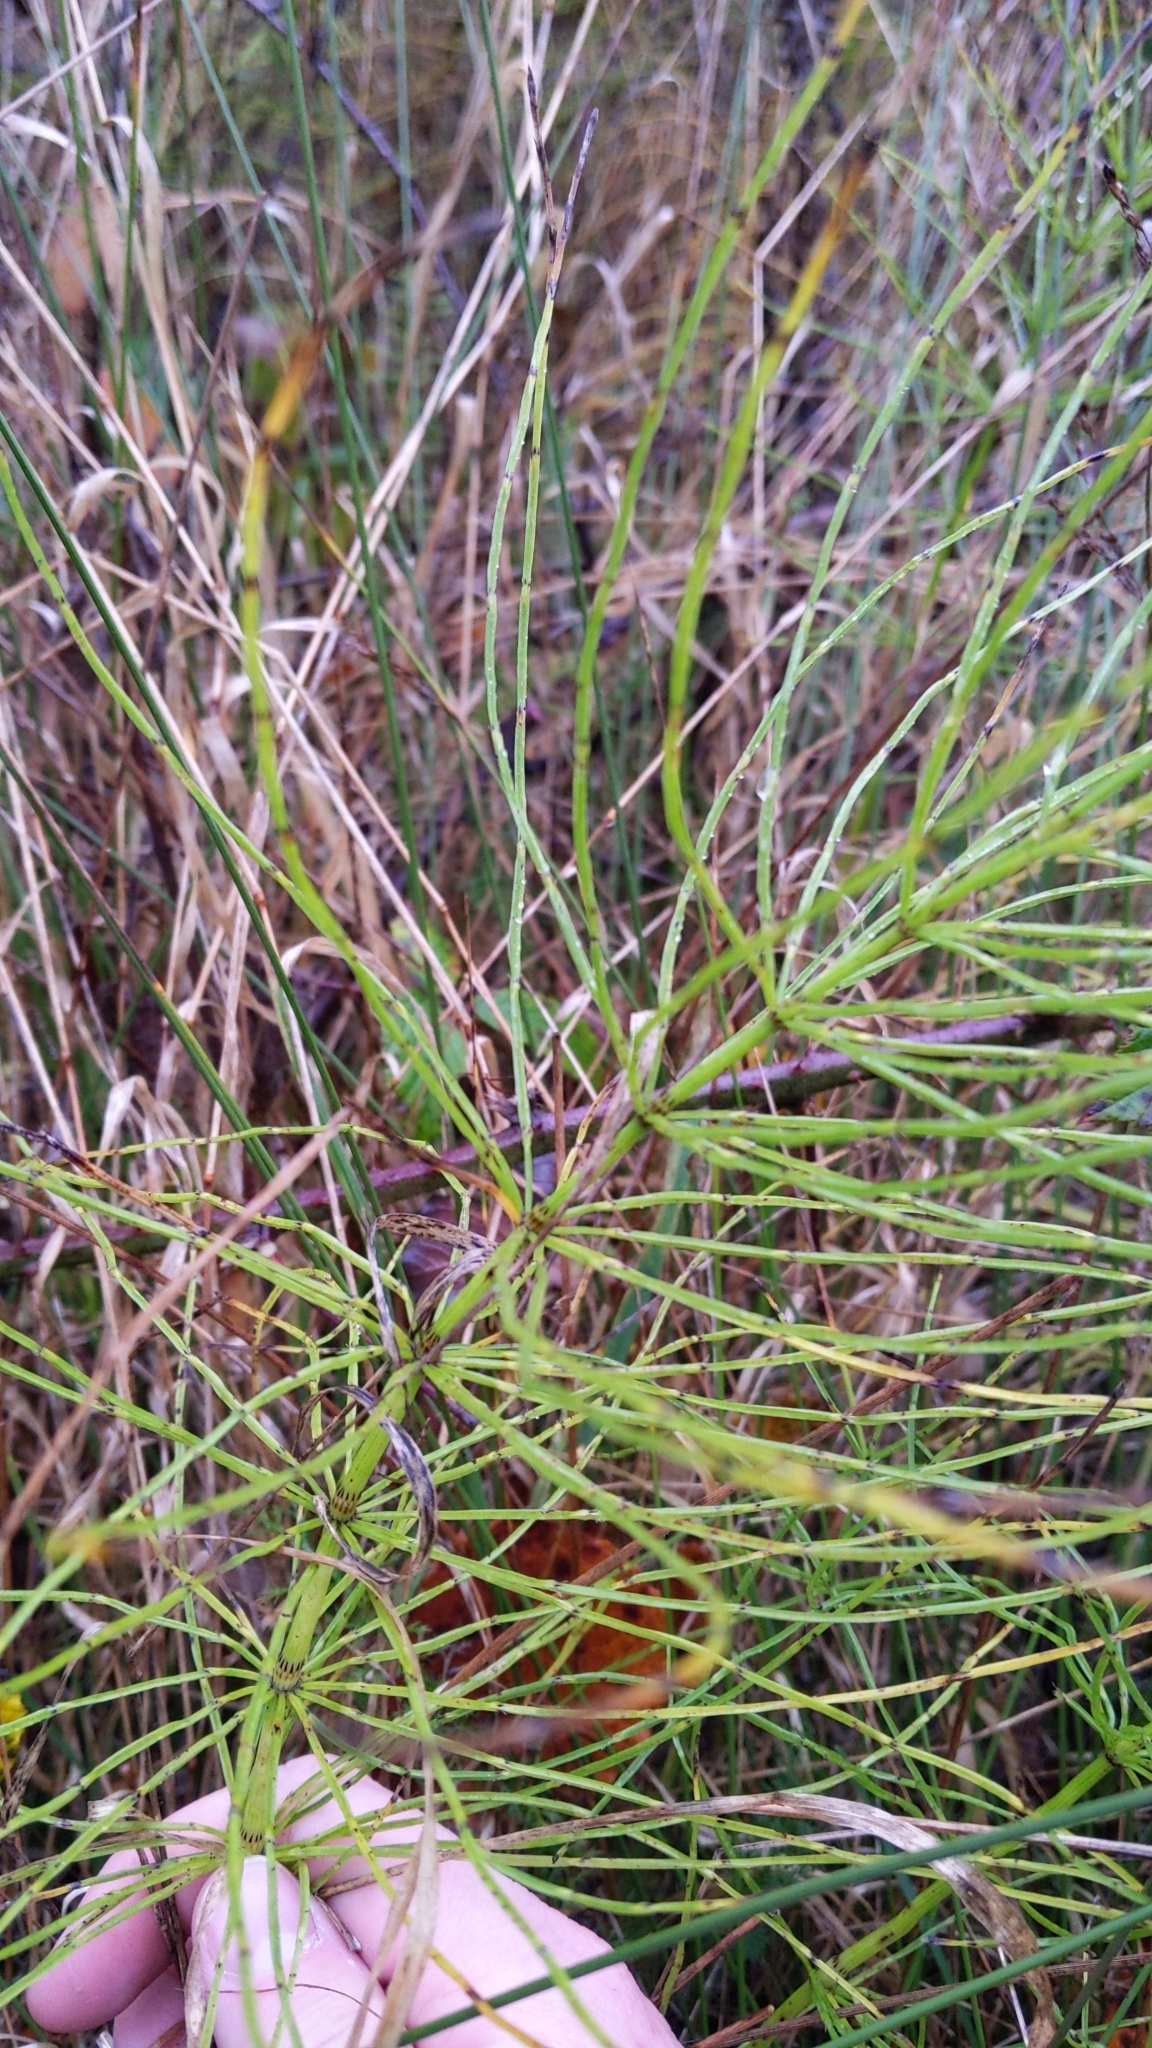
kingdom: Plantae
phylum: Tracheophyta
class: Polypodiopsida
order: Equisetales
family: Equisetaceae
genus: Equisetum
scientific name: Equisetum arvense
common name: Field horsetail
